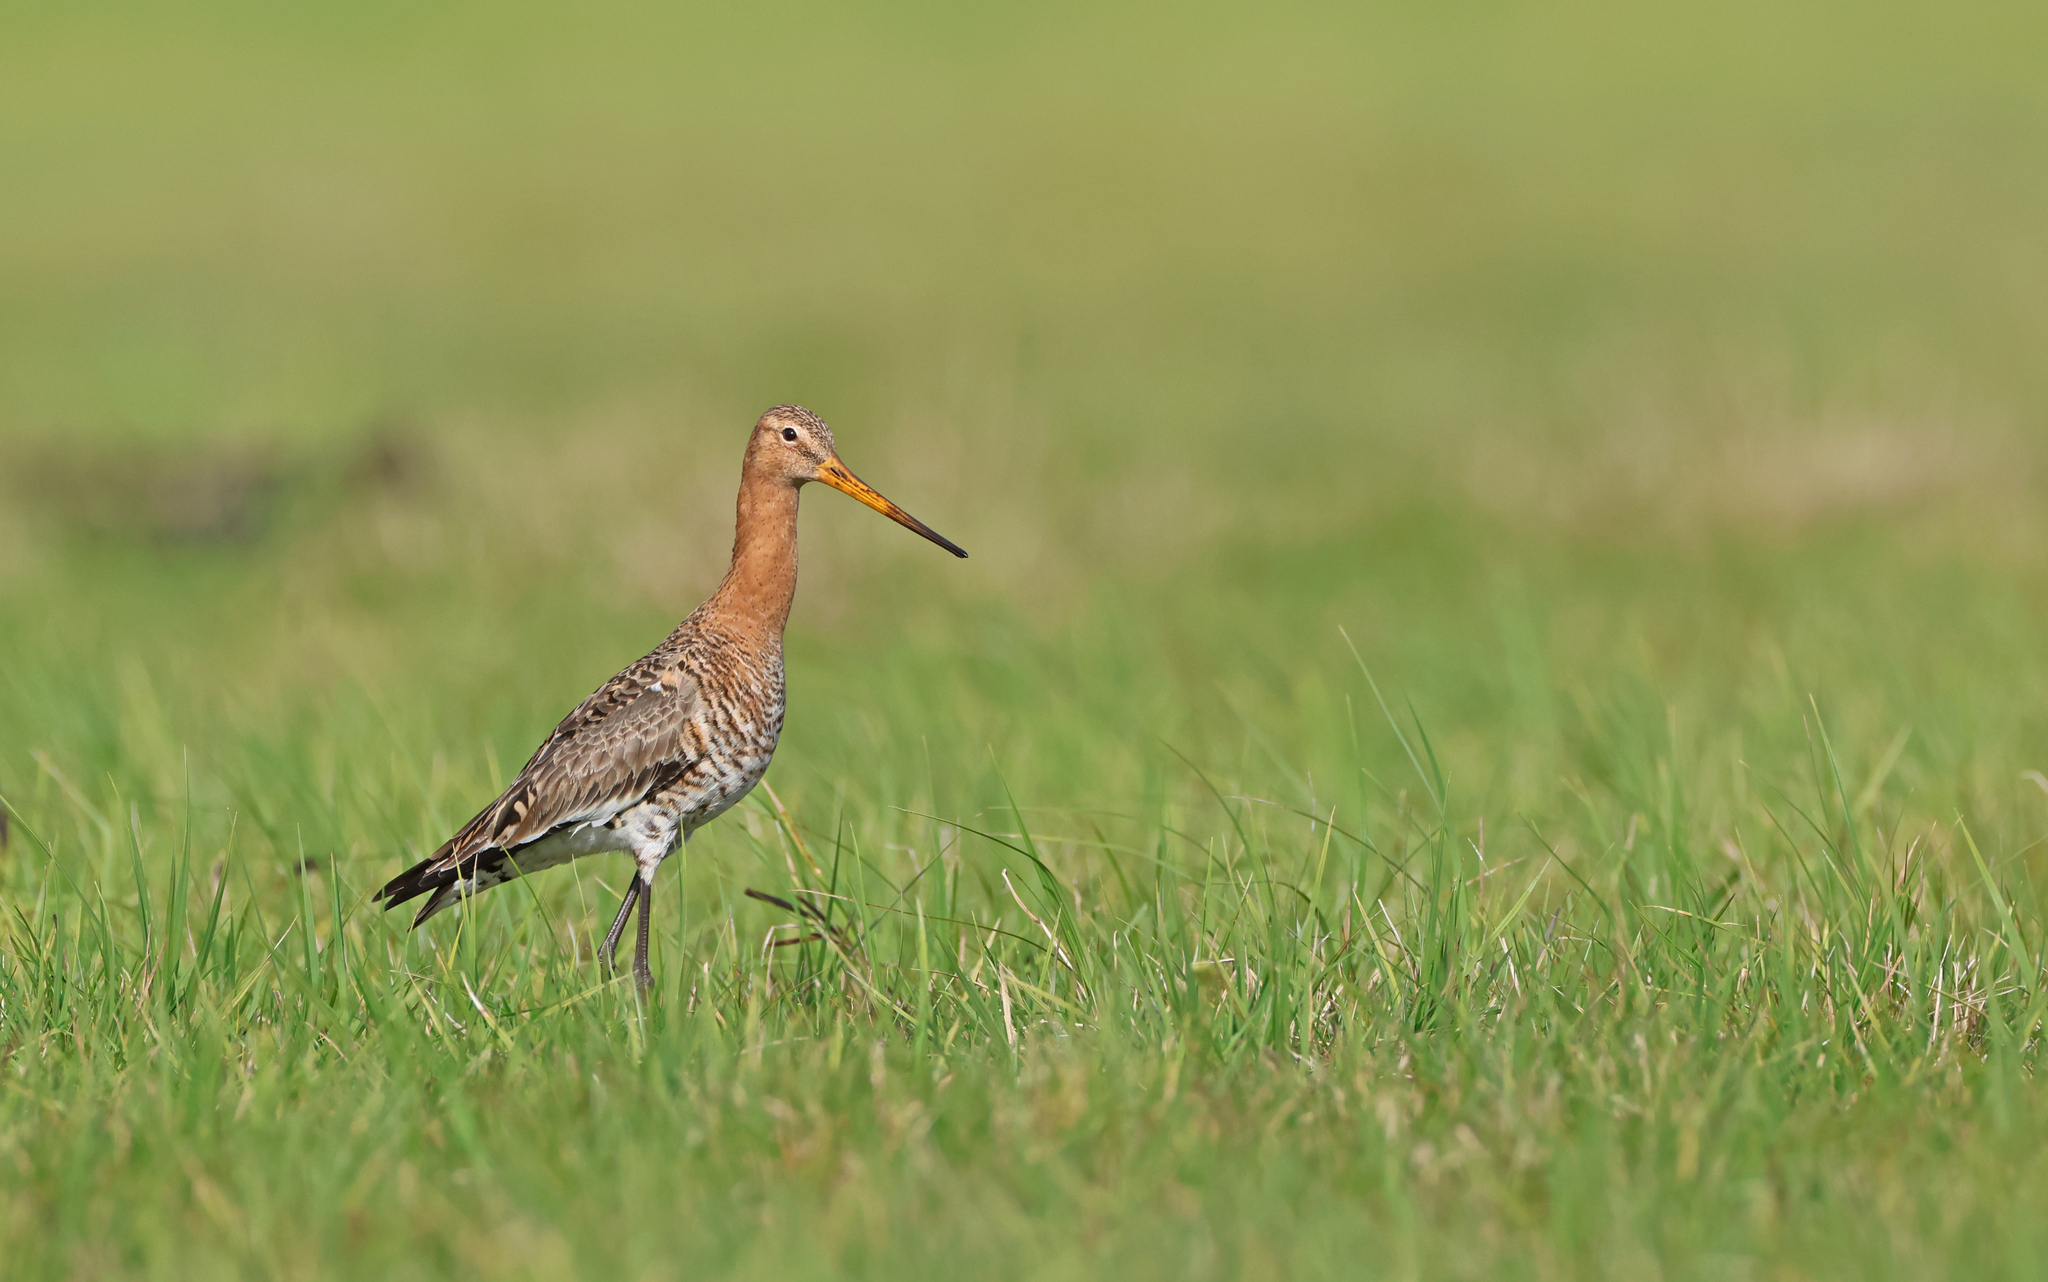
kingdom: Animalia
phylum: Chordata
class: Aves
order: Charadriiformes
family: Scolopacidae
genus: Limosa
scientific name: Limosa limosa
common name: Black-tailed godwit
